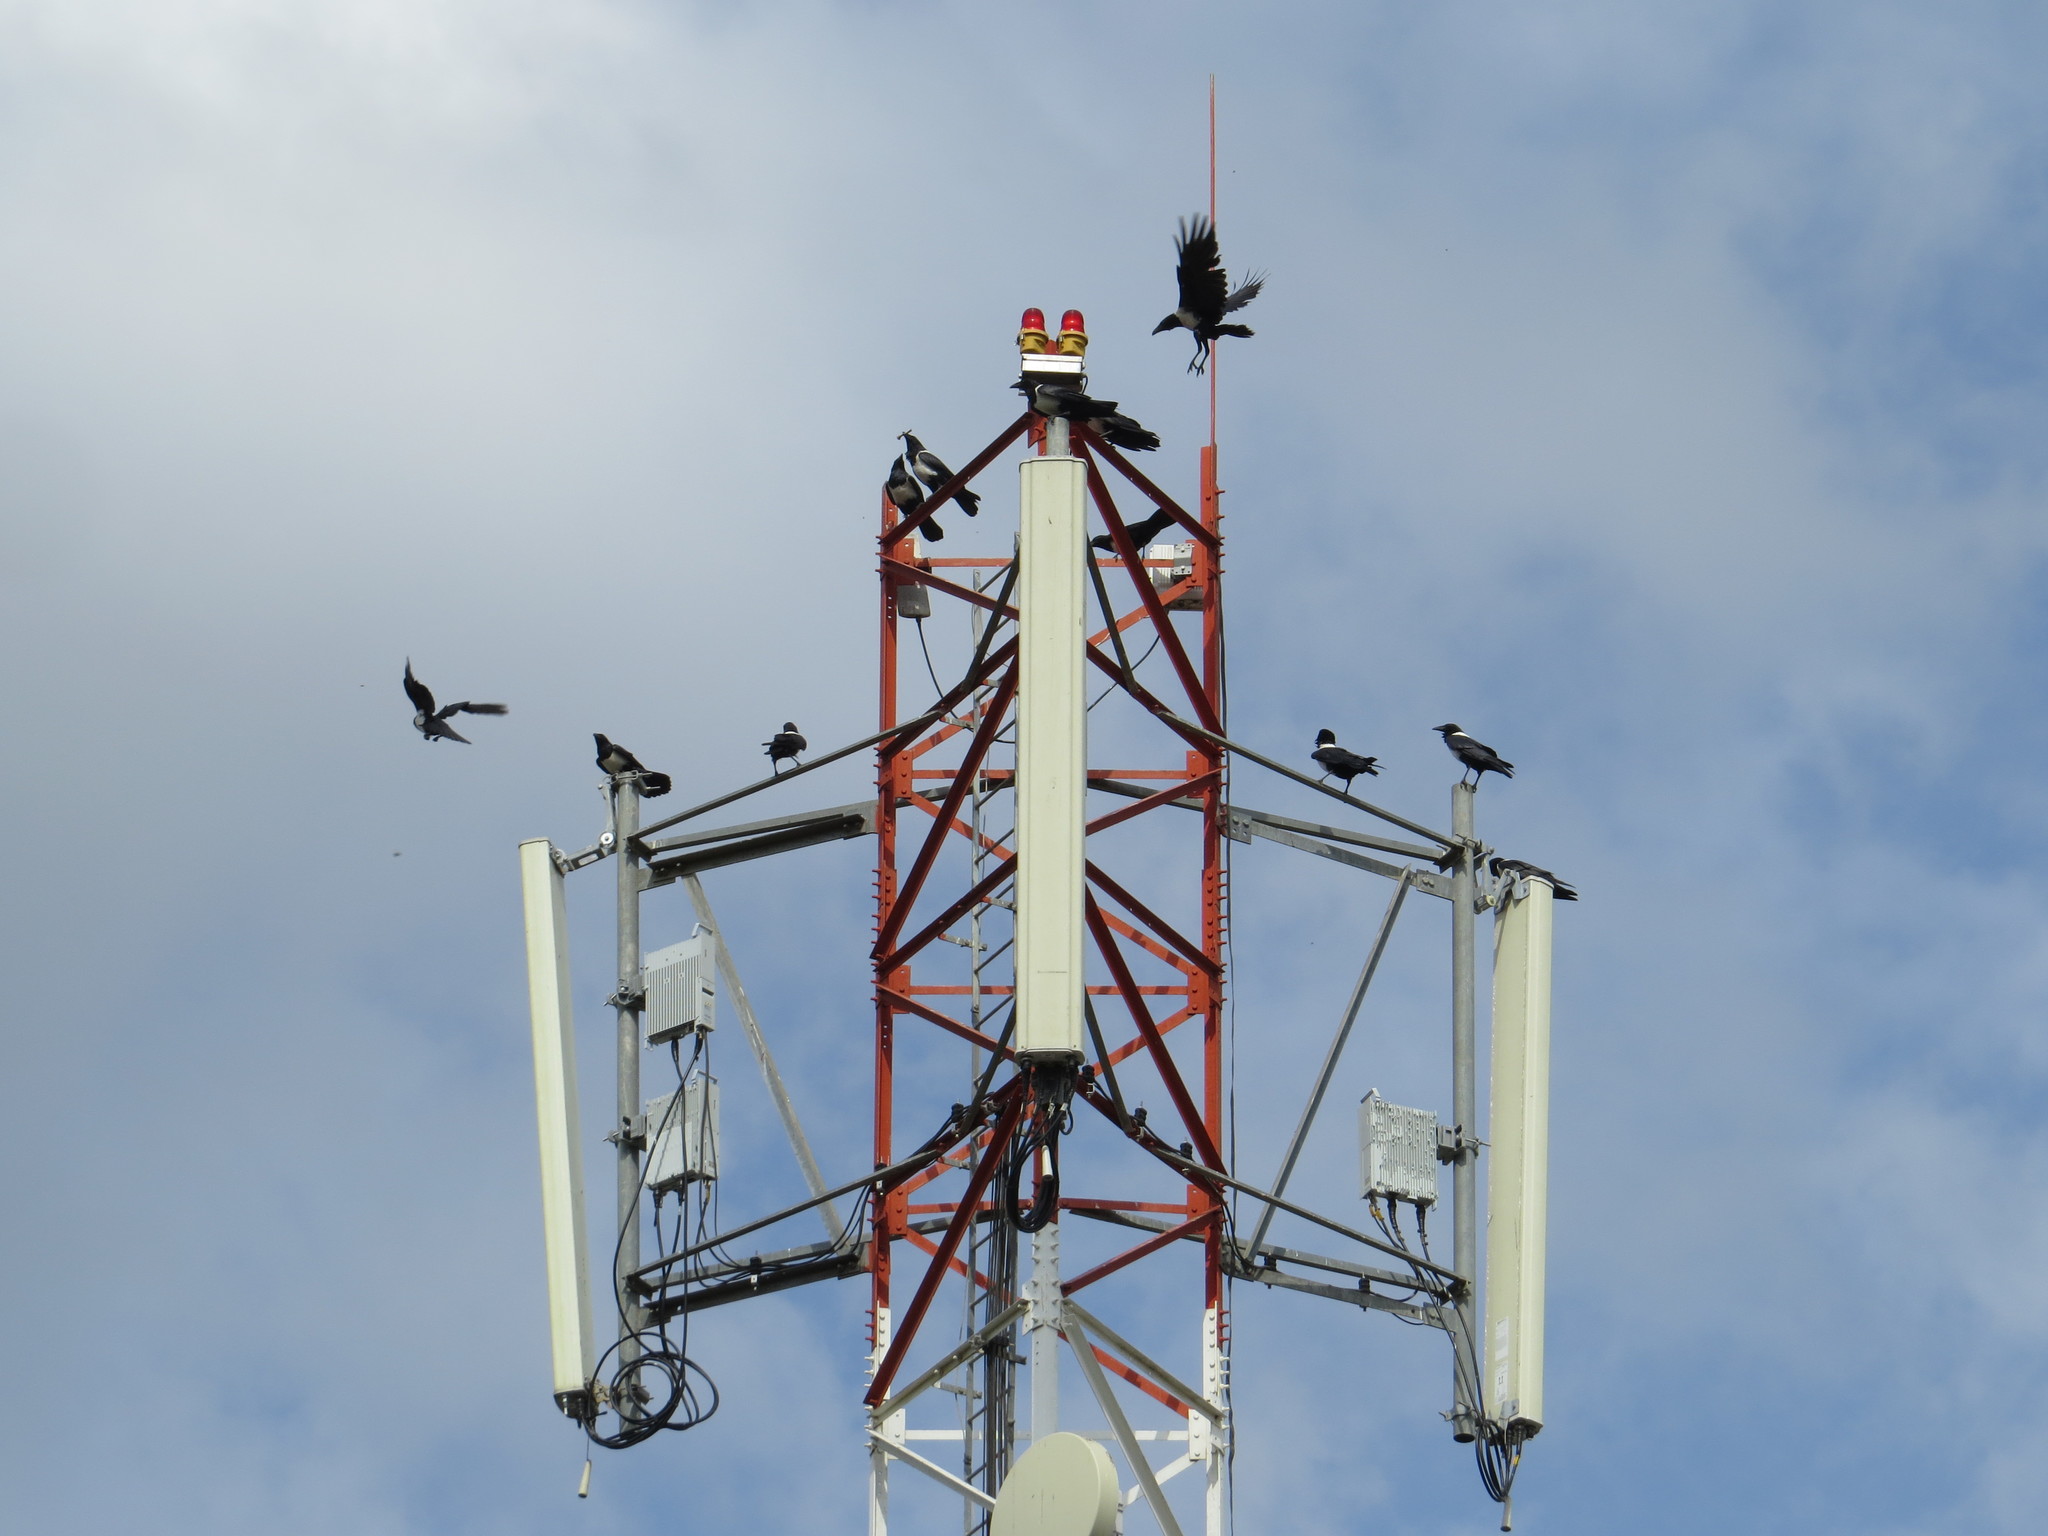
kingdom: Animalia
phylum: Chordata
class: Aves
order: Passeriformes
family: Corvidae
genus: Corvus
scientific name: Corvus albus
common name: Pied crow
